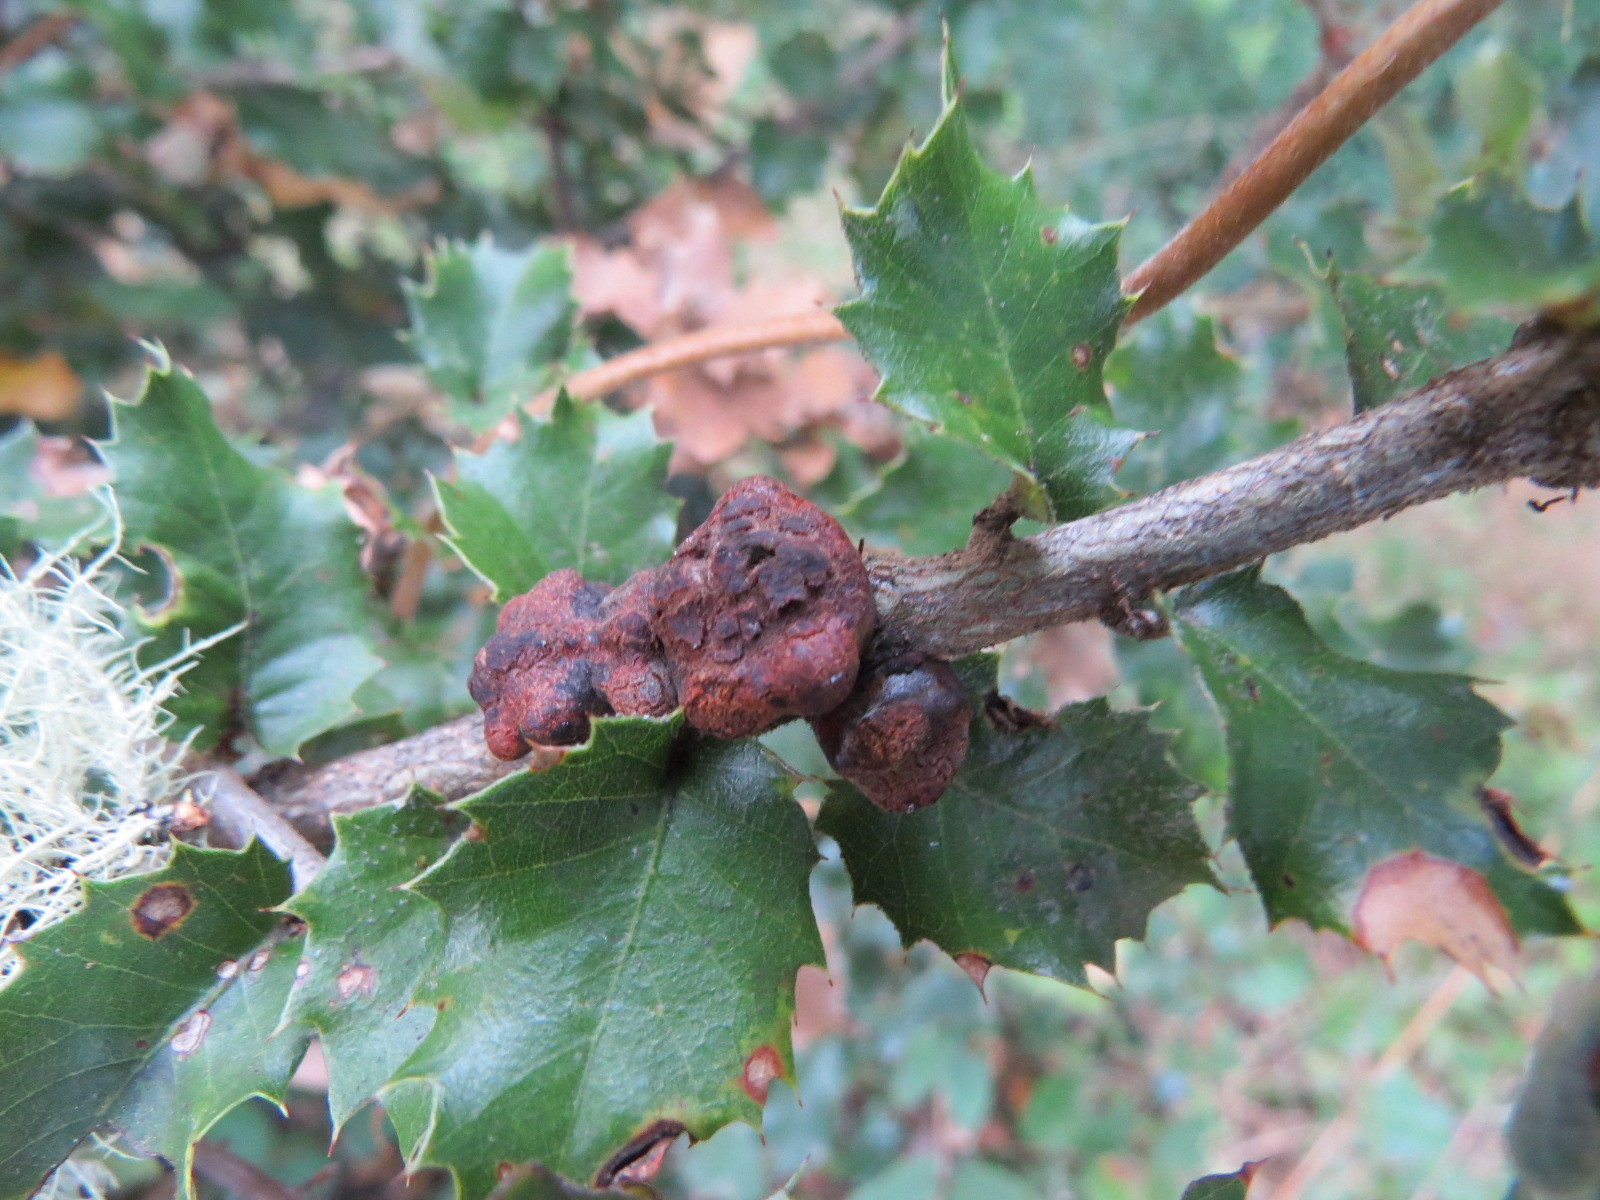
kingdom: Animalia
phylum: Arthropoda
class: Insecta
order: Hymenoptera
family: Cynipidae
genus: Disholandricus
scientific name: Disholandricus
